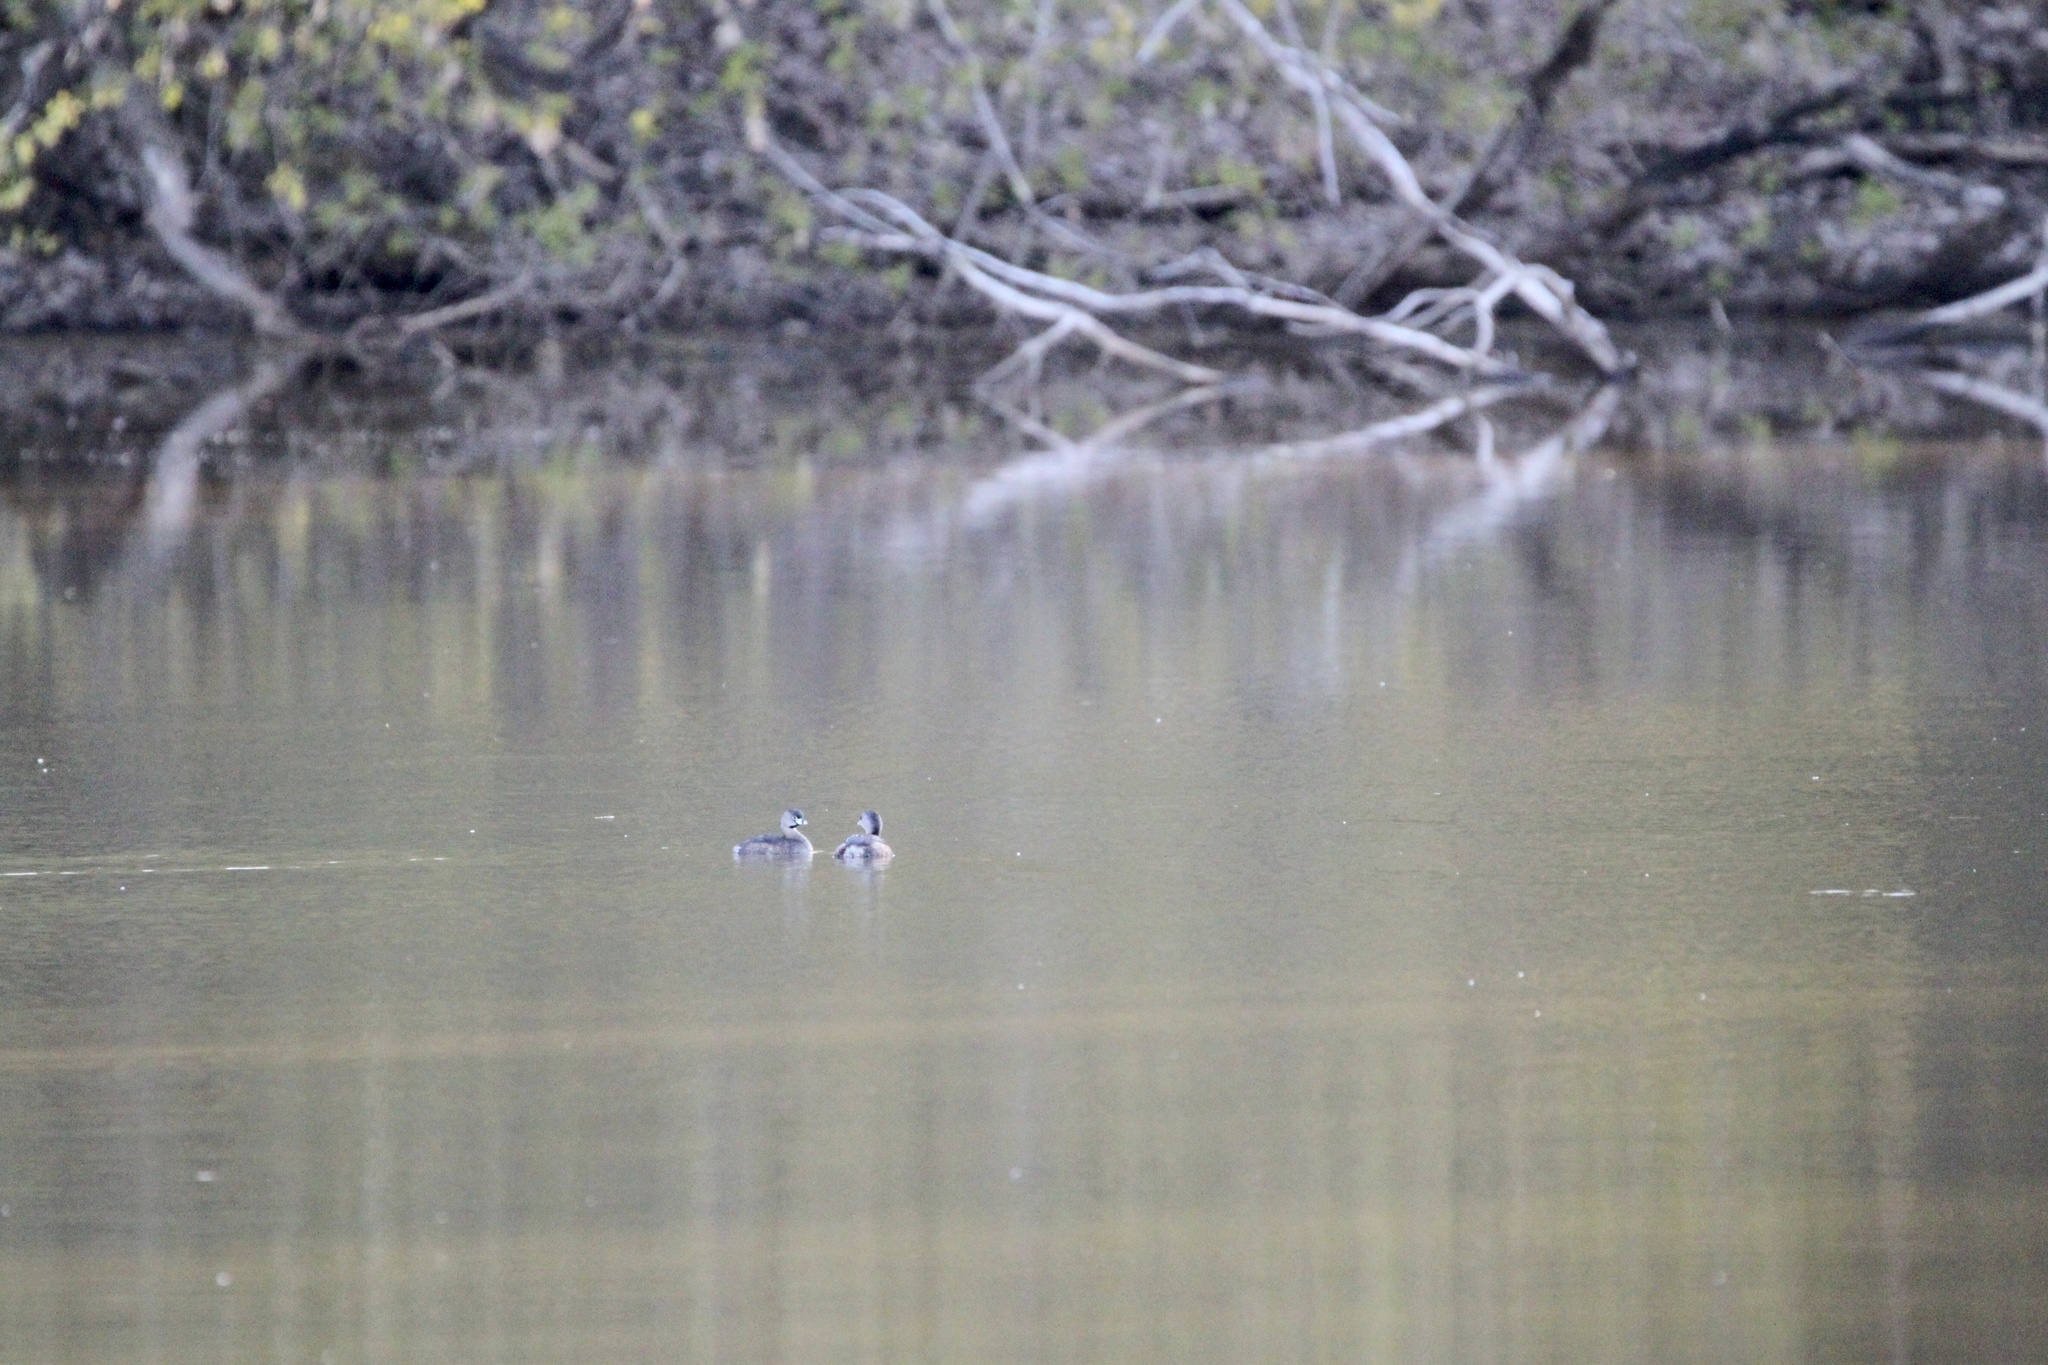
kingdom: Animalia
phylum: Chordata
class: Aves
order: Podicipediformes
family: Podicipedidae
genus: Podilymbus
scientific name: Podilymbus podiceps
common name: Pied-billed grebe
